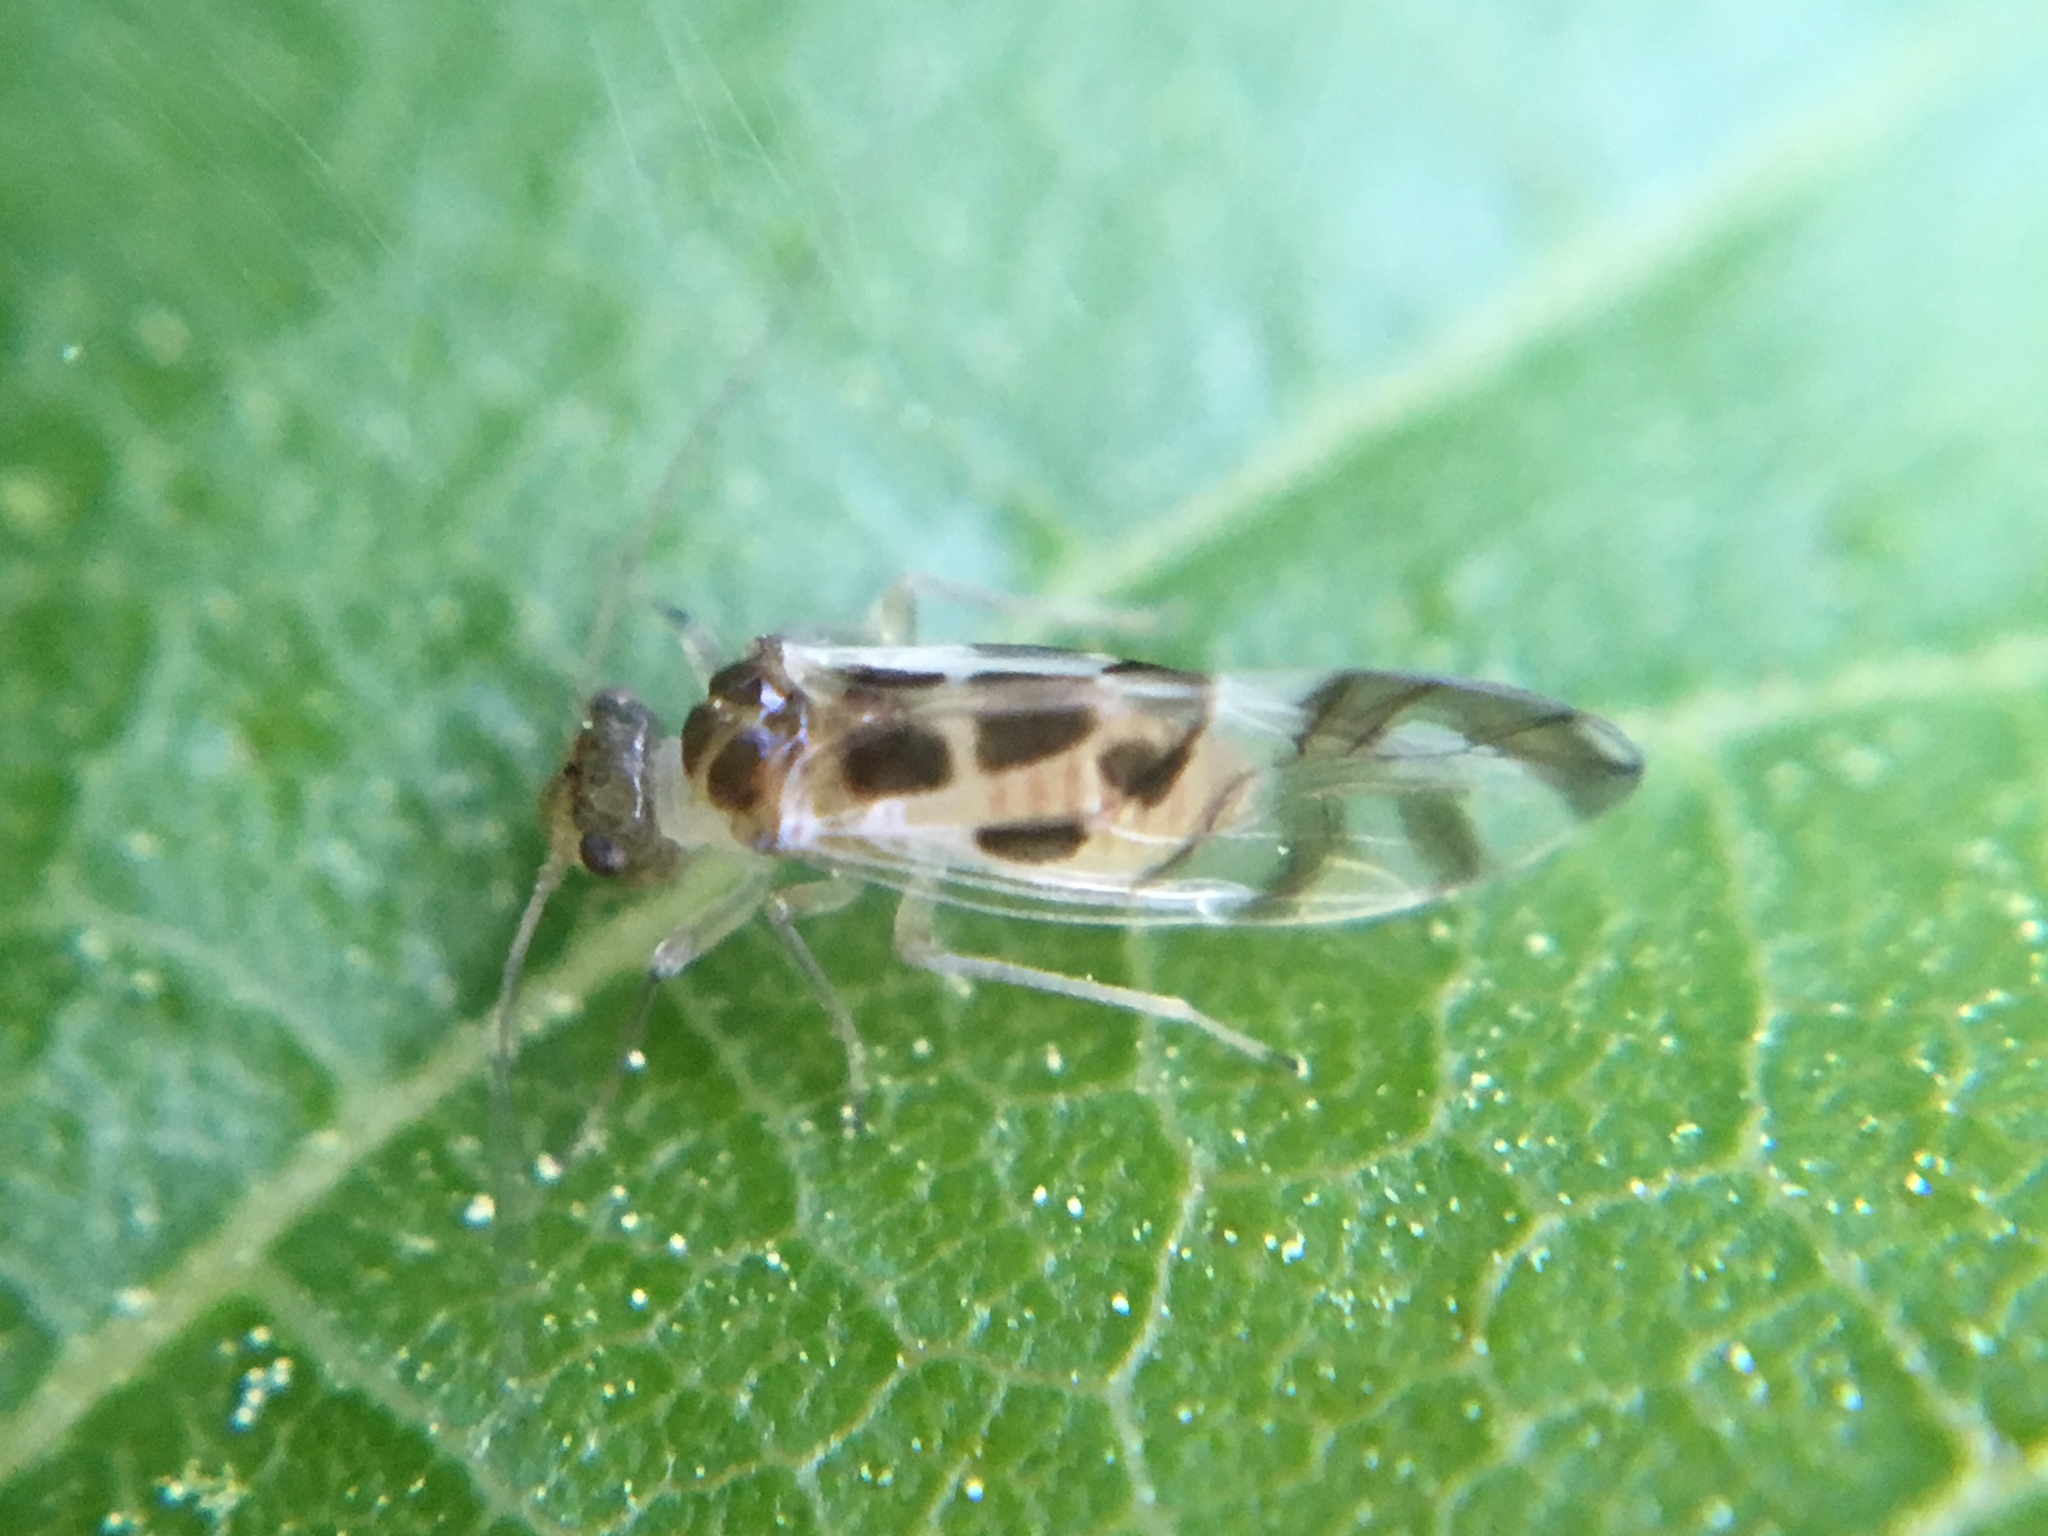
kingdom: Animalia
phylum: Arthropoda
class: Insecta
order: Psocodea
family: Stenopsocidae
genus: Graphopsocus
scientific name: Graphopsocus cruciatus
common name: Lizard bark louse
